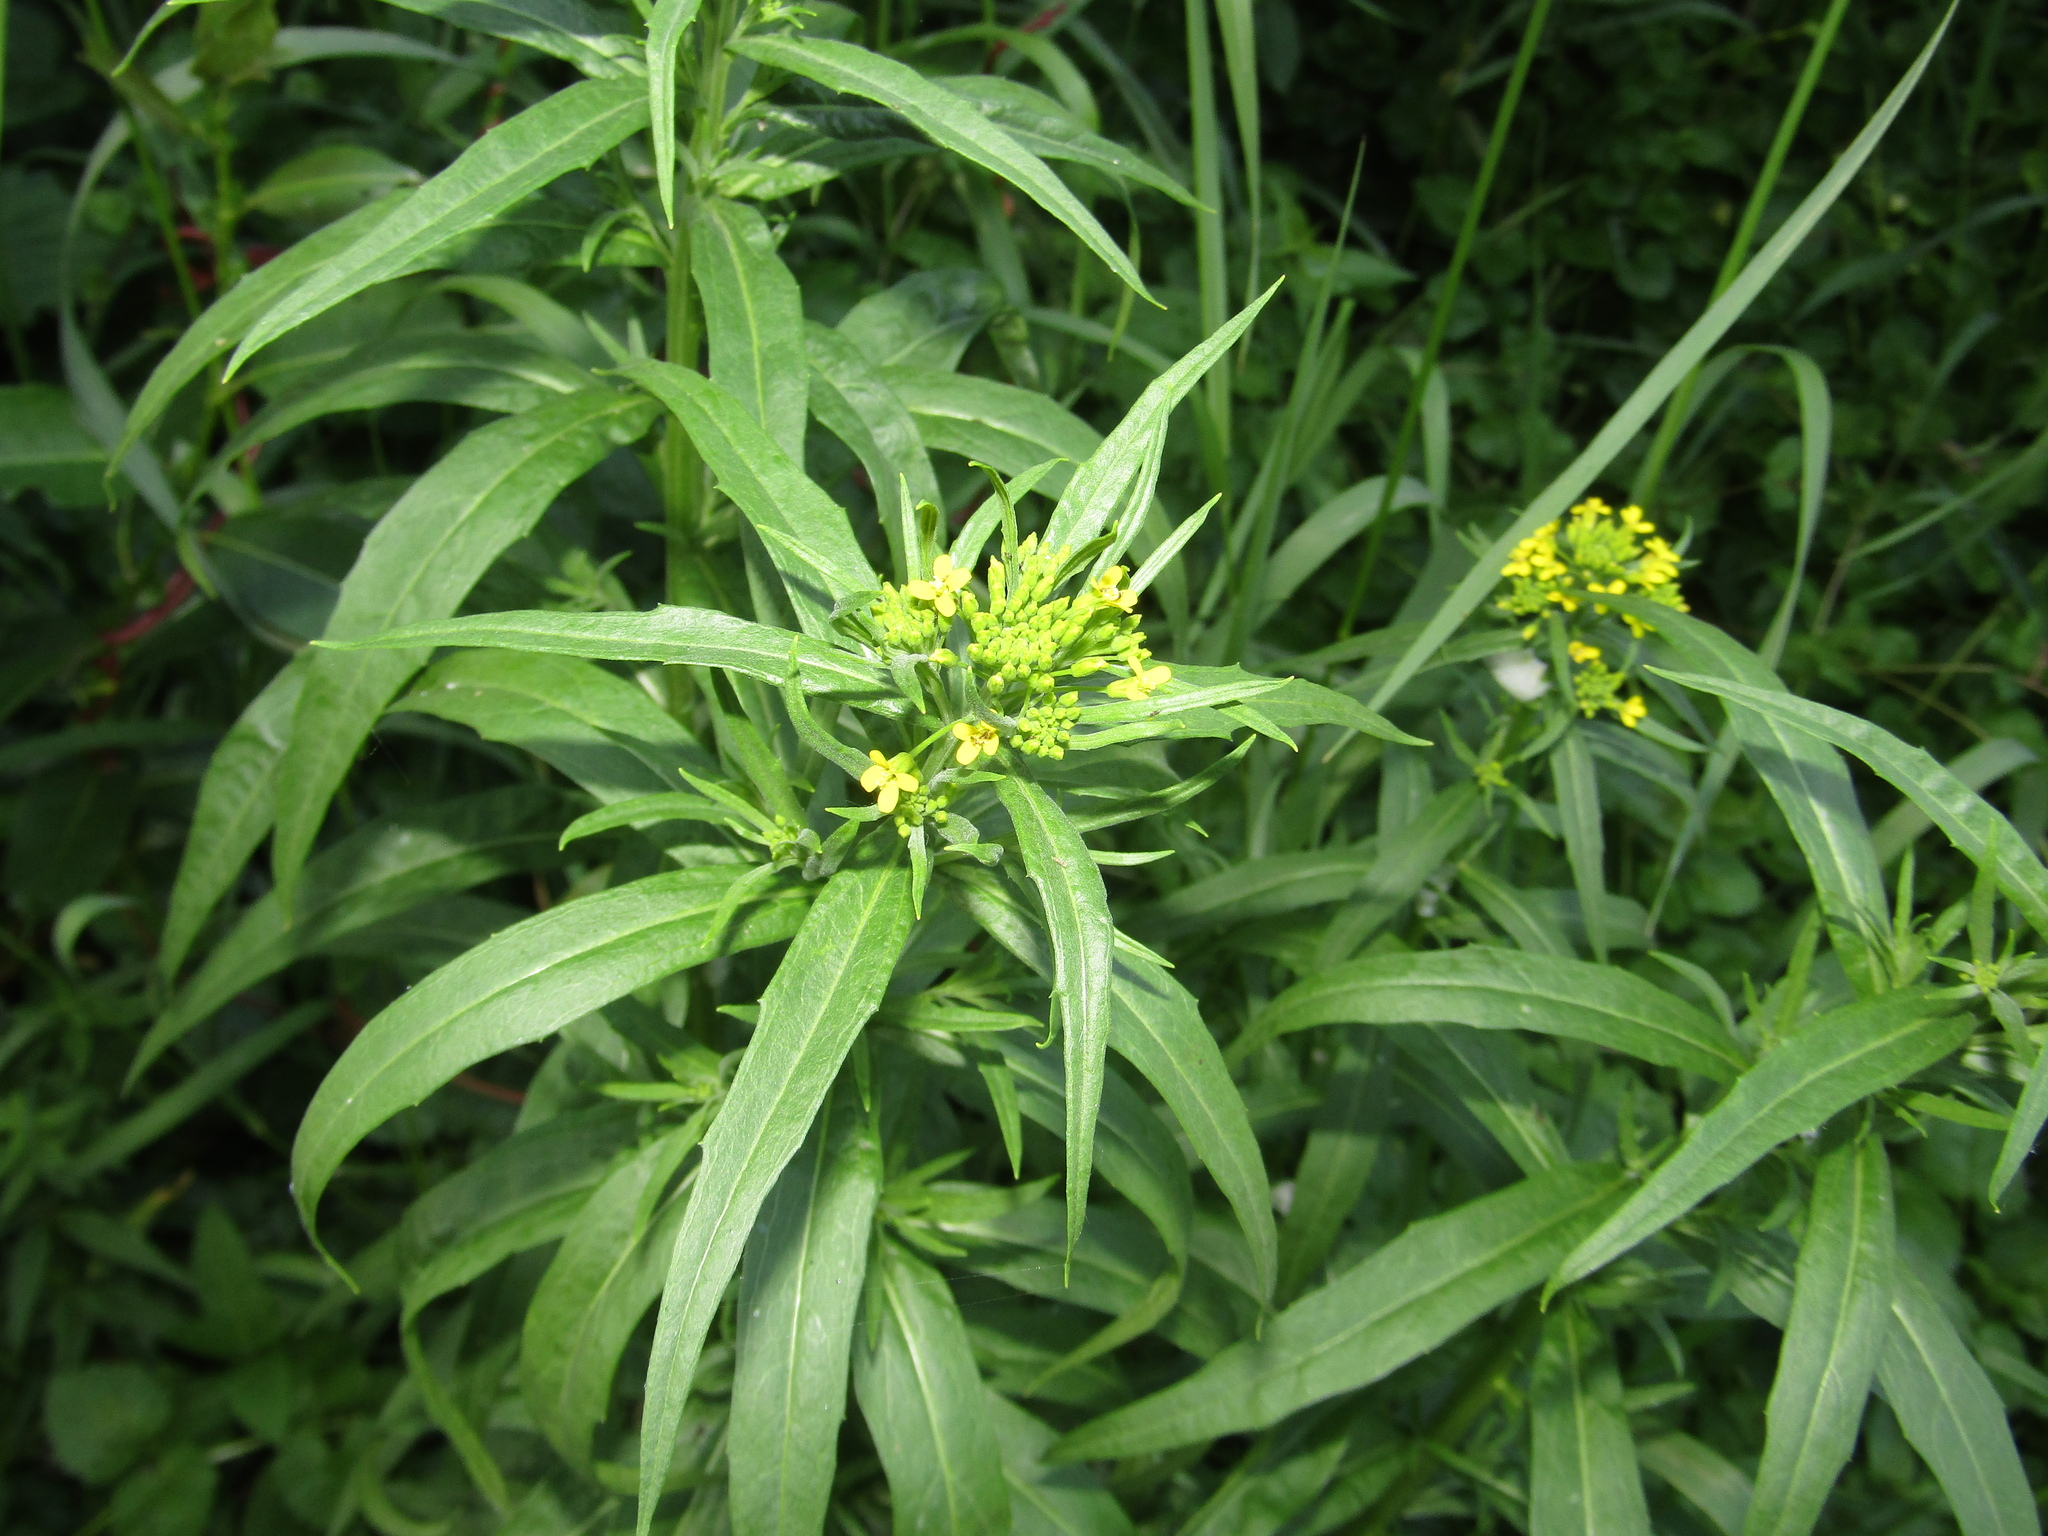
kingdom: Plantae
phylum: Tracheophyta
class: Magnoliopsida
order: Brassicales
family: Brassicaceae
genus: Erysimum
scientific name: Erysimum cheiranthoides
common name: Treacle mustard
